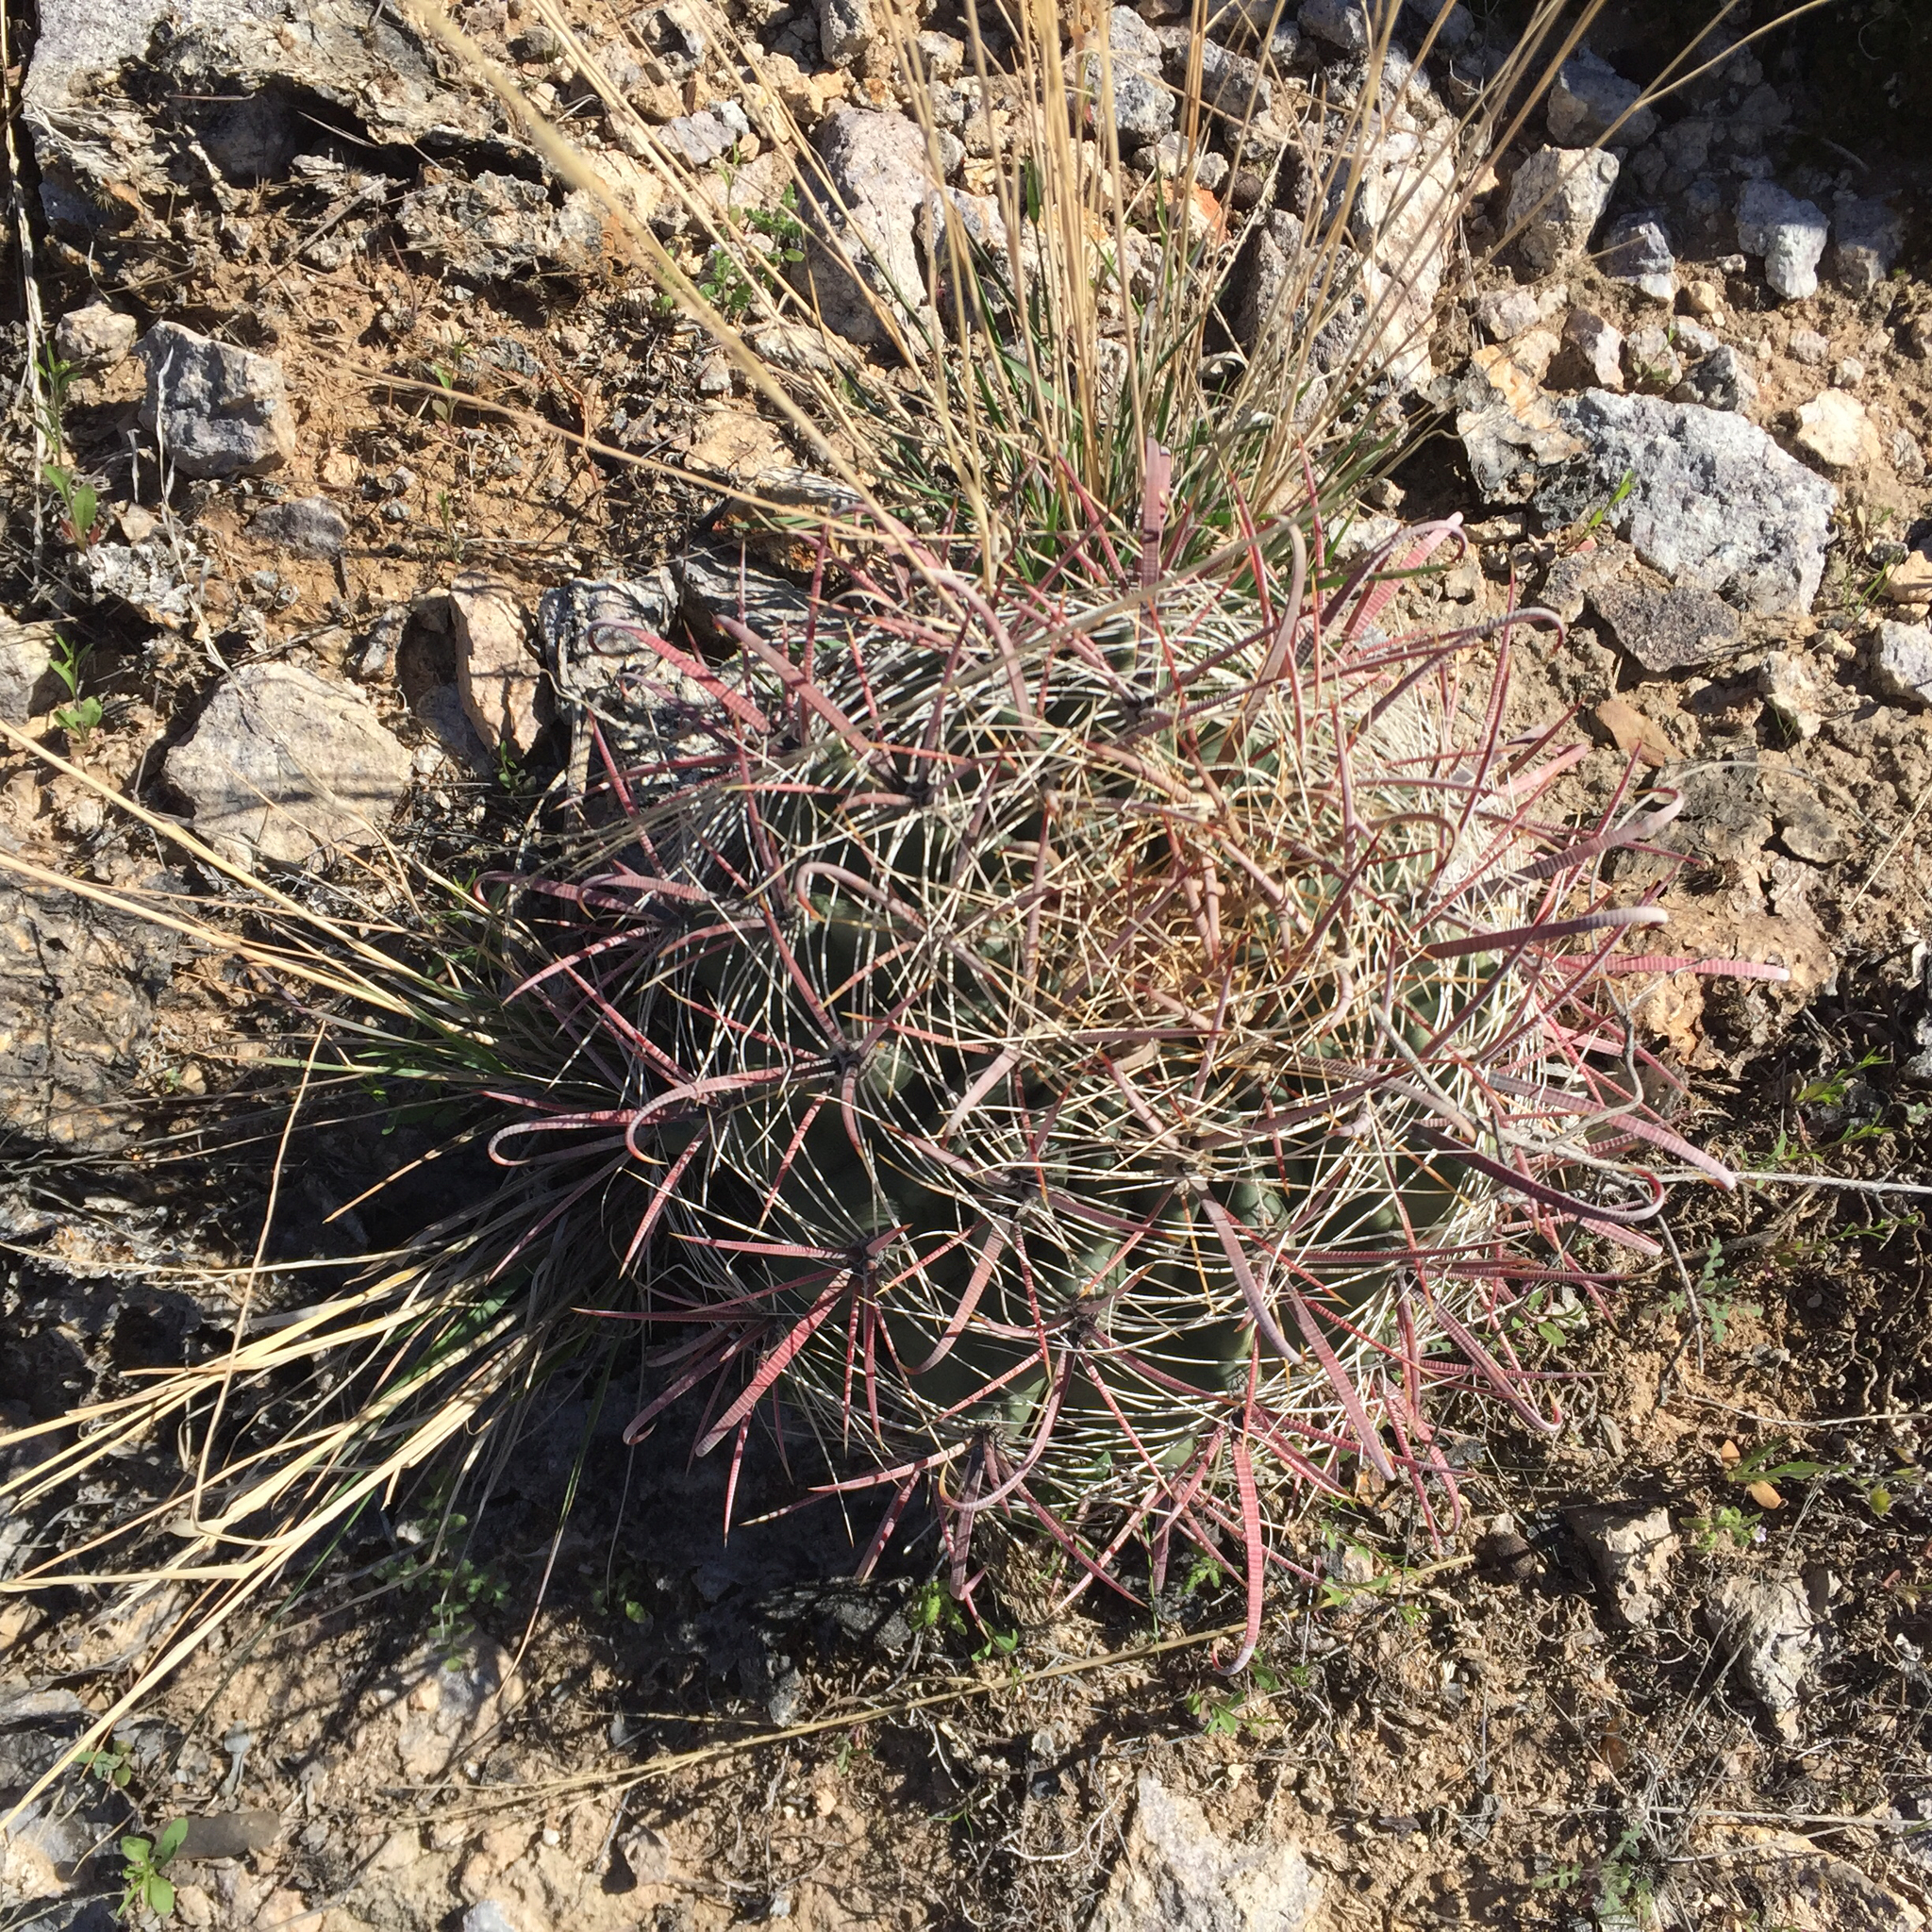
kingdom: Plantae
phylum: Tracheophyta
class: Magnoliopsida
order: Caryophyllales
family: Cactaceae
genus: Ferocactus
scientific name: Ferocactus wislizeni
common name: Candy barrel cactus
